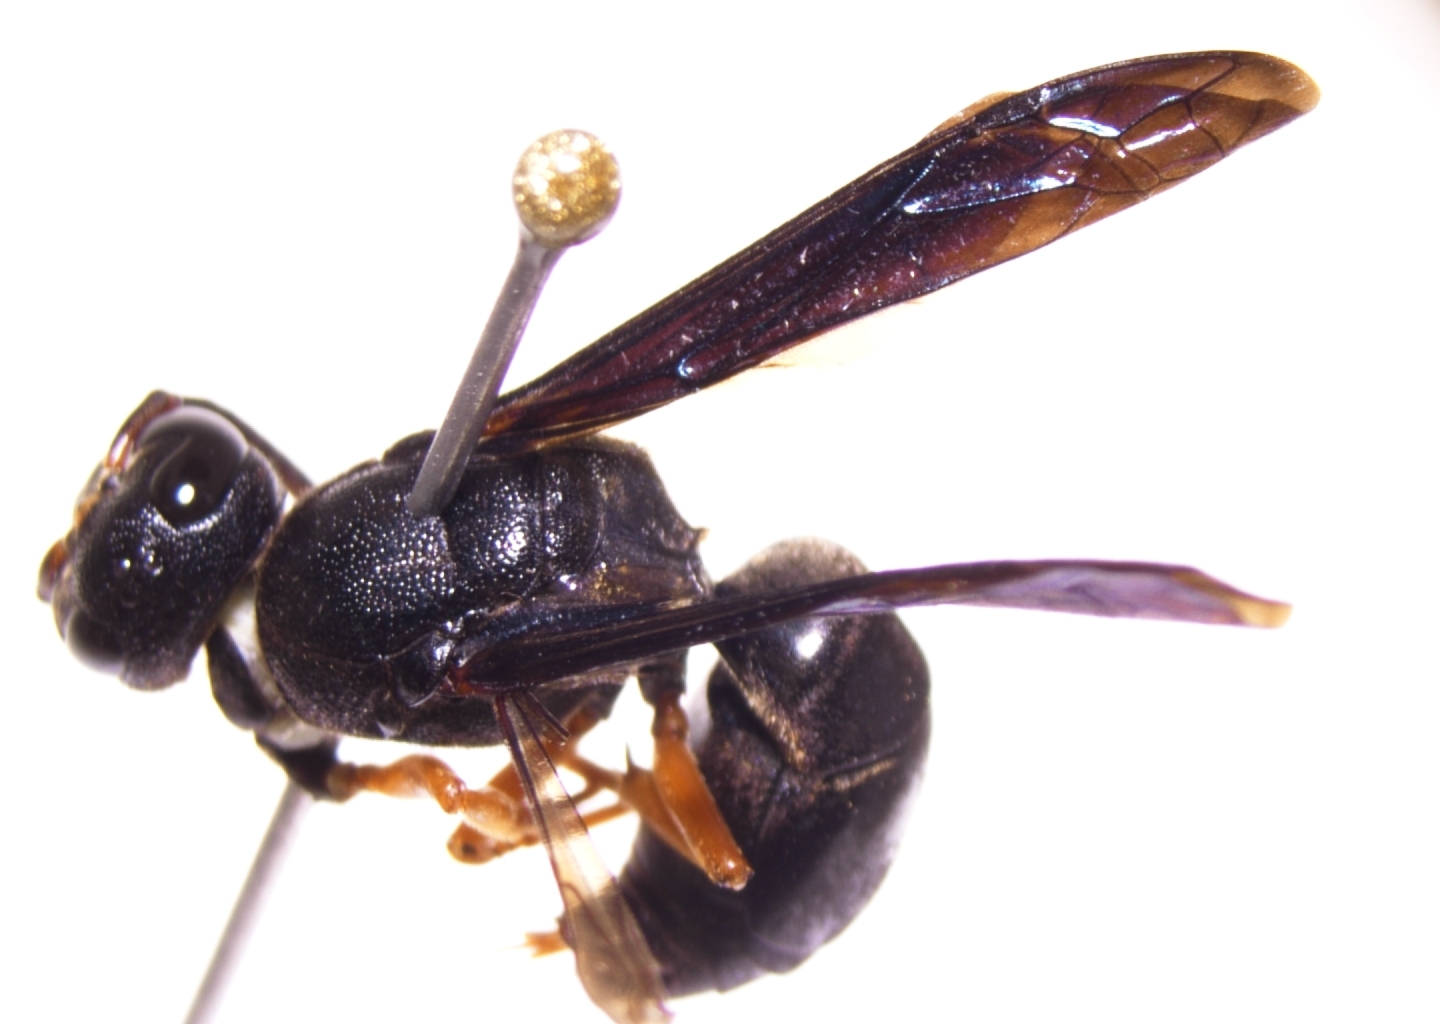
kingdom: Animalia
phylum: Arthropoda
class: Insecta
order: Hymenoptera
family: Eumenidae
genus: Anterhynchium
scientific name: Anterhynchium rufipes
